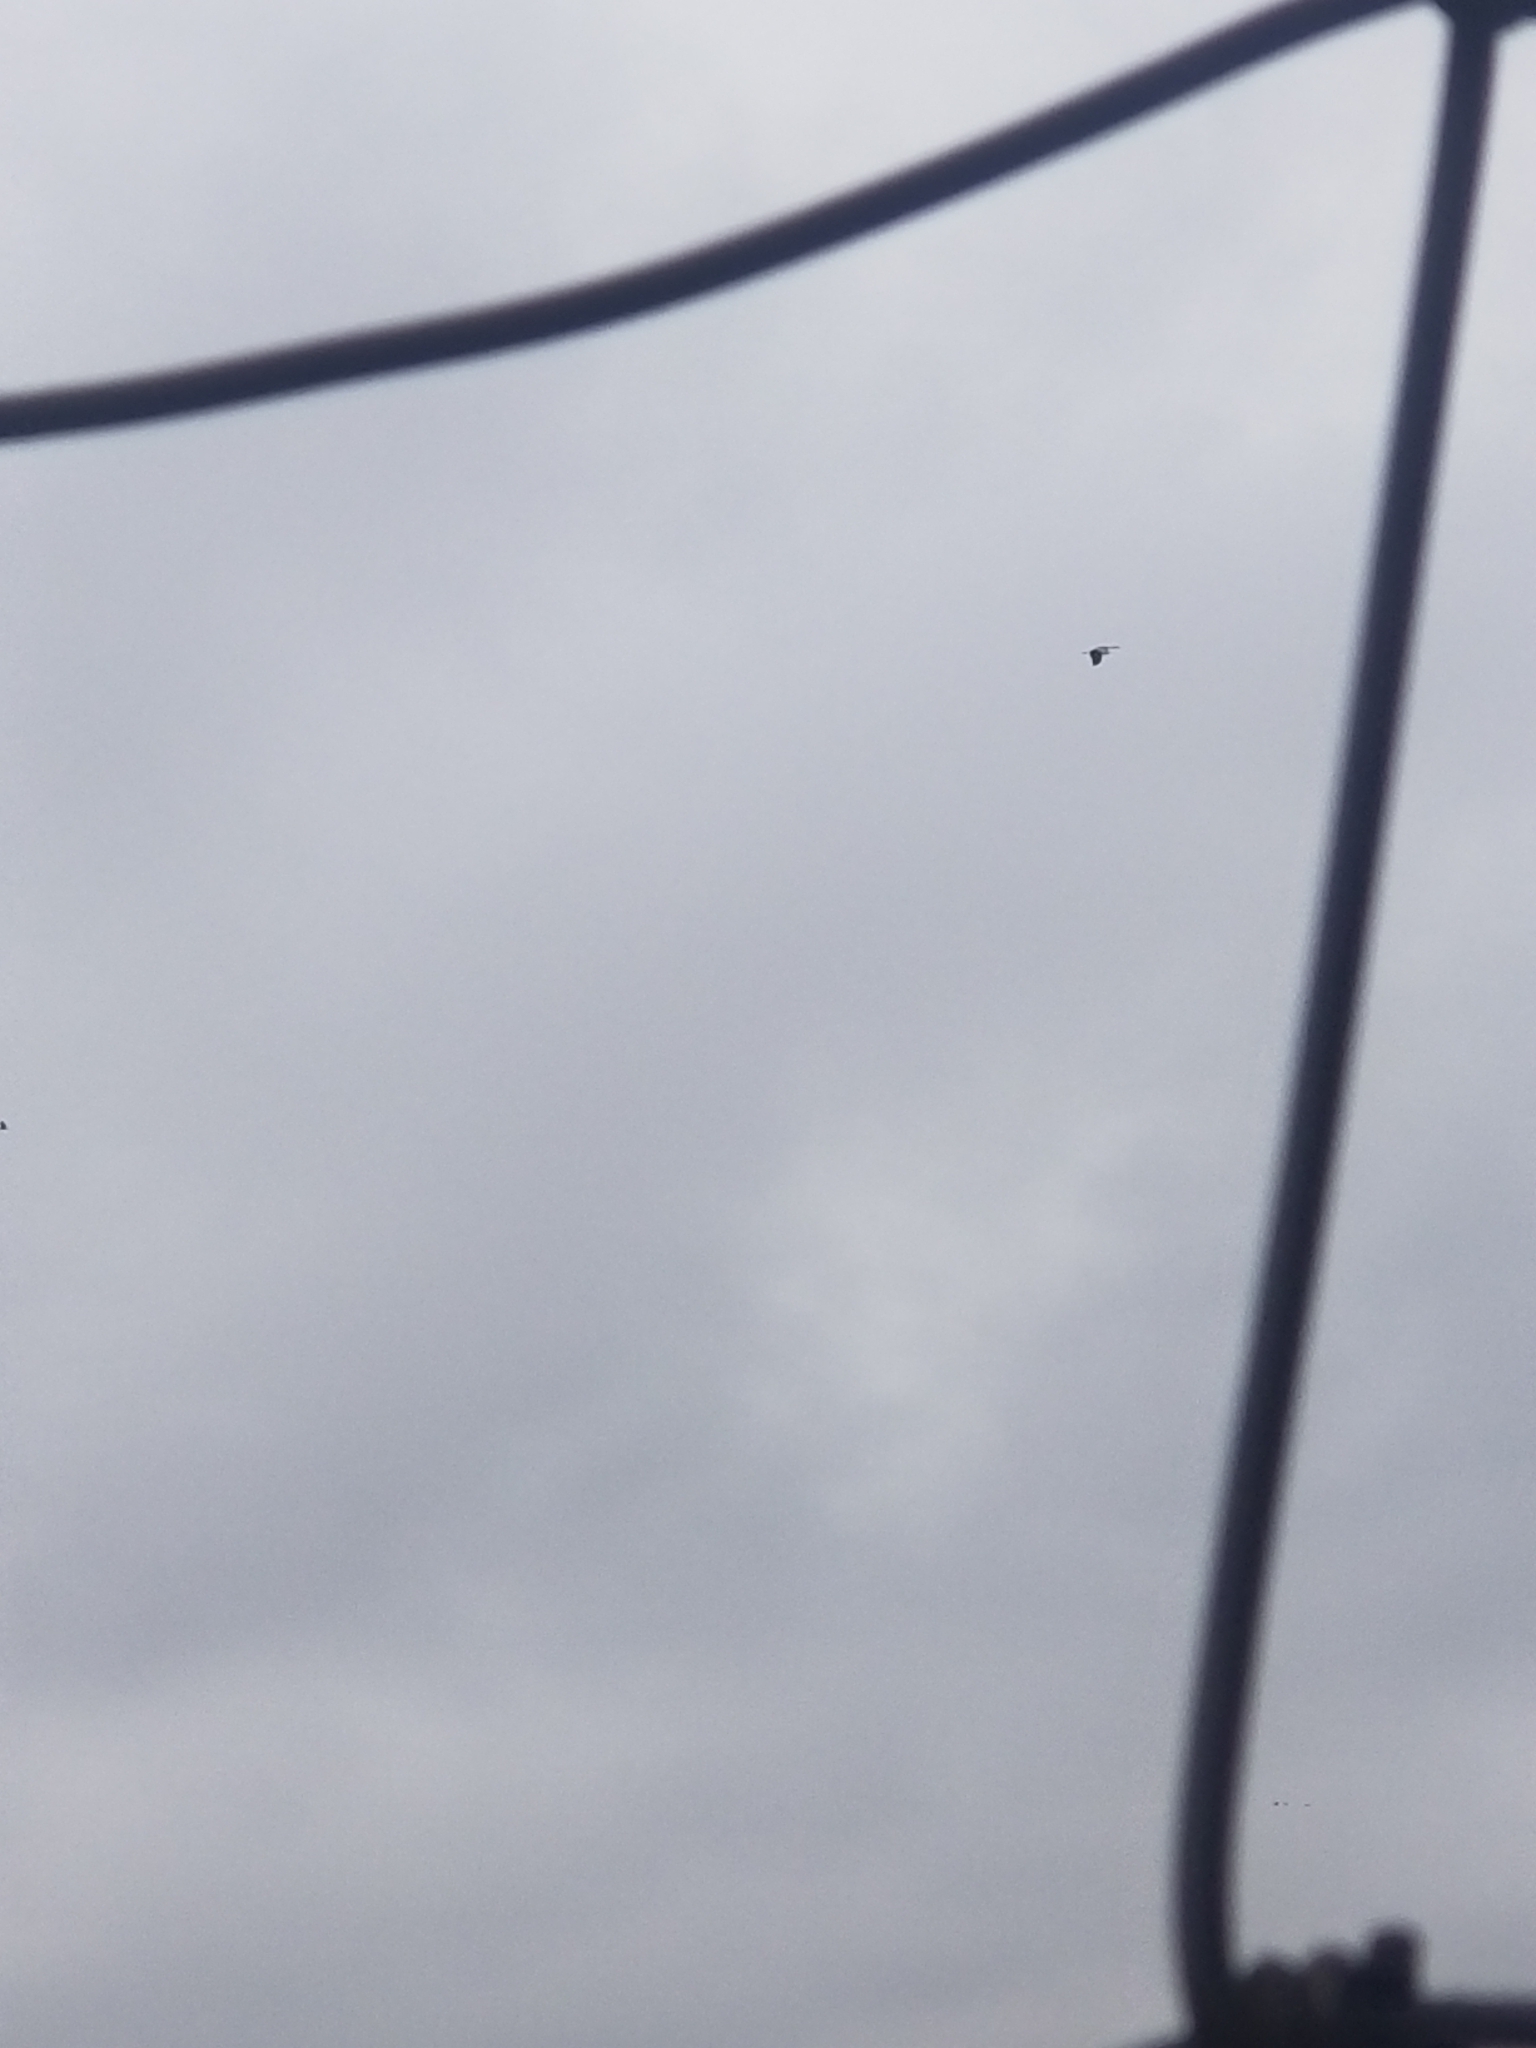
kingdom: Animalia
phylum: Chordata
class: Aves
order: Gruiformes
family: Gruidae
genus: Grus
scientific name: Grus canadensis
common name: Sandhill crane
